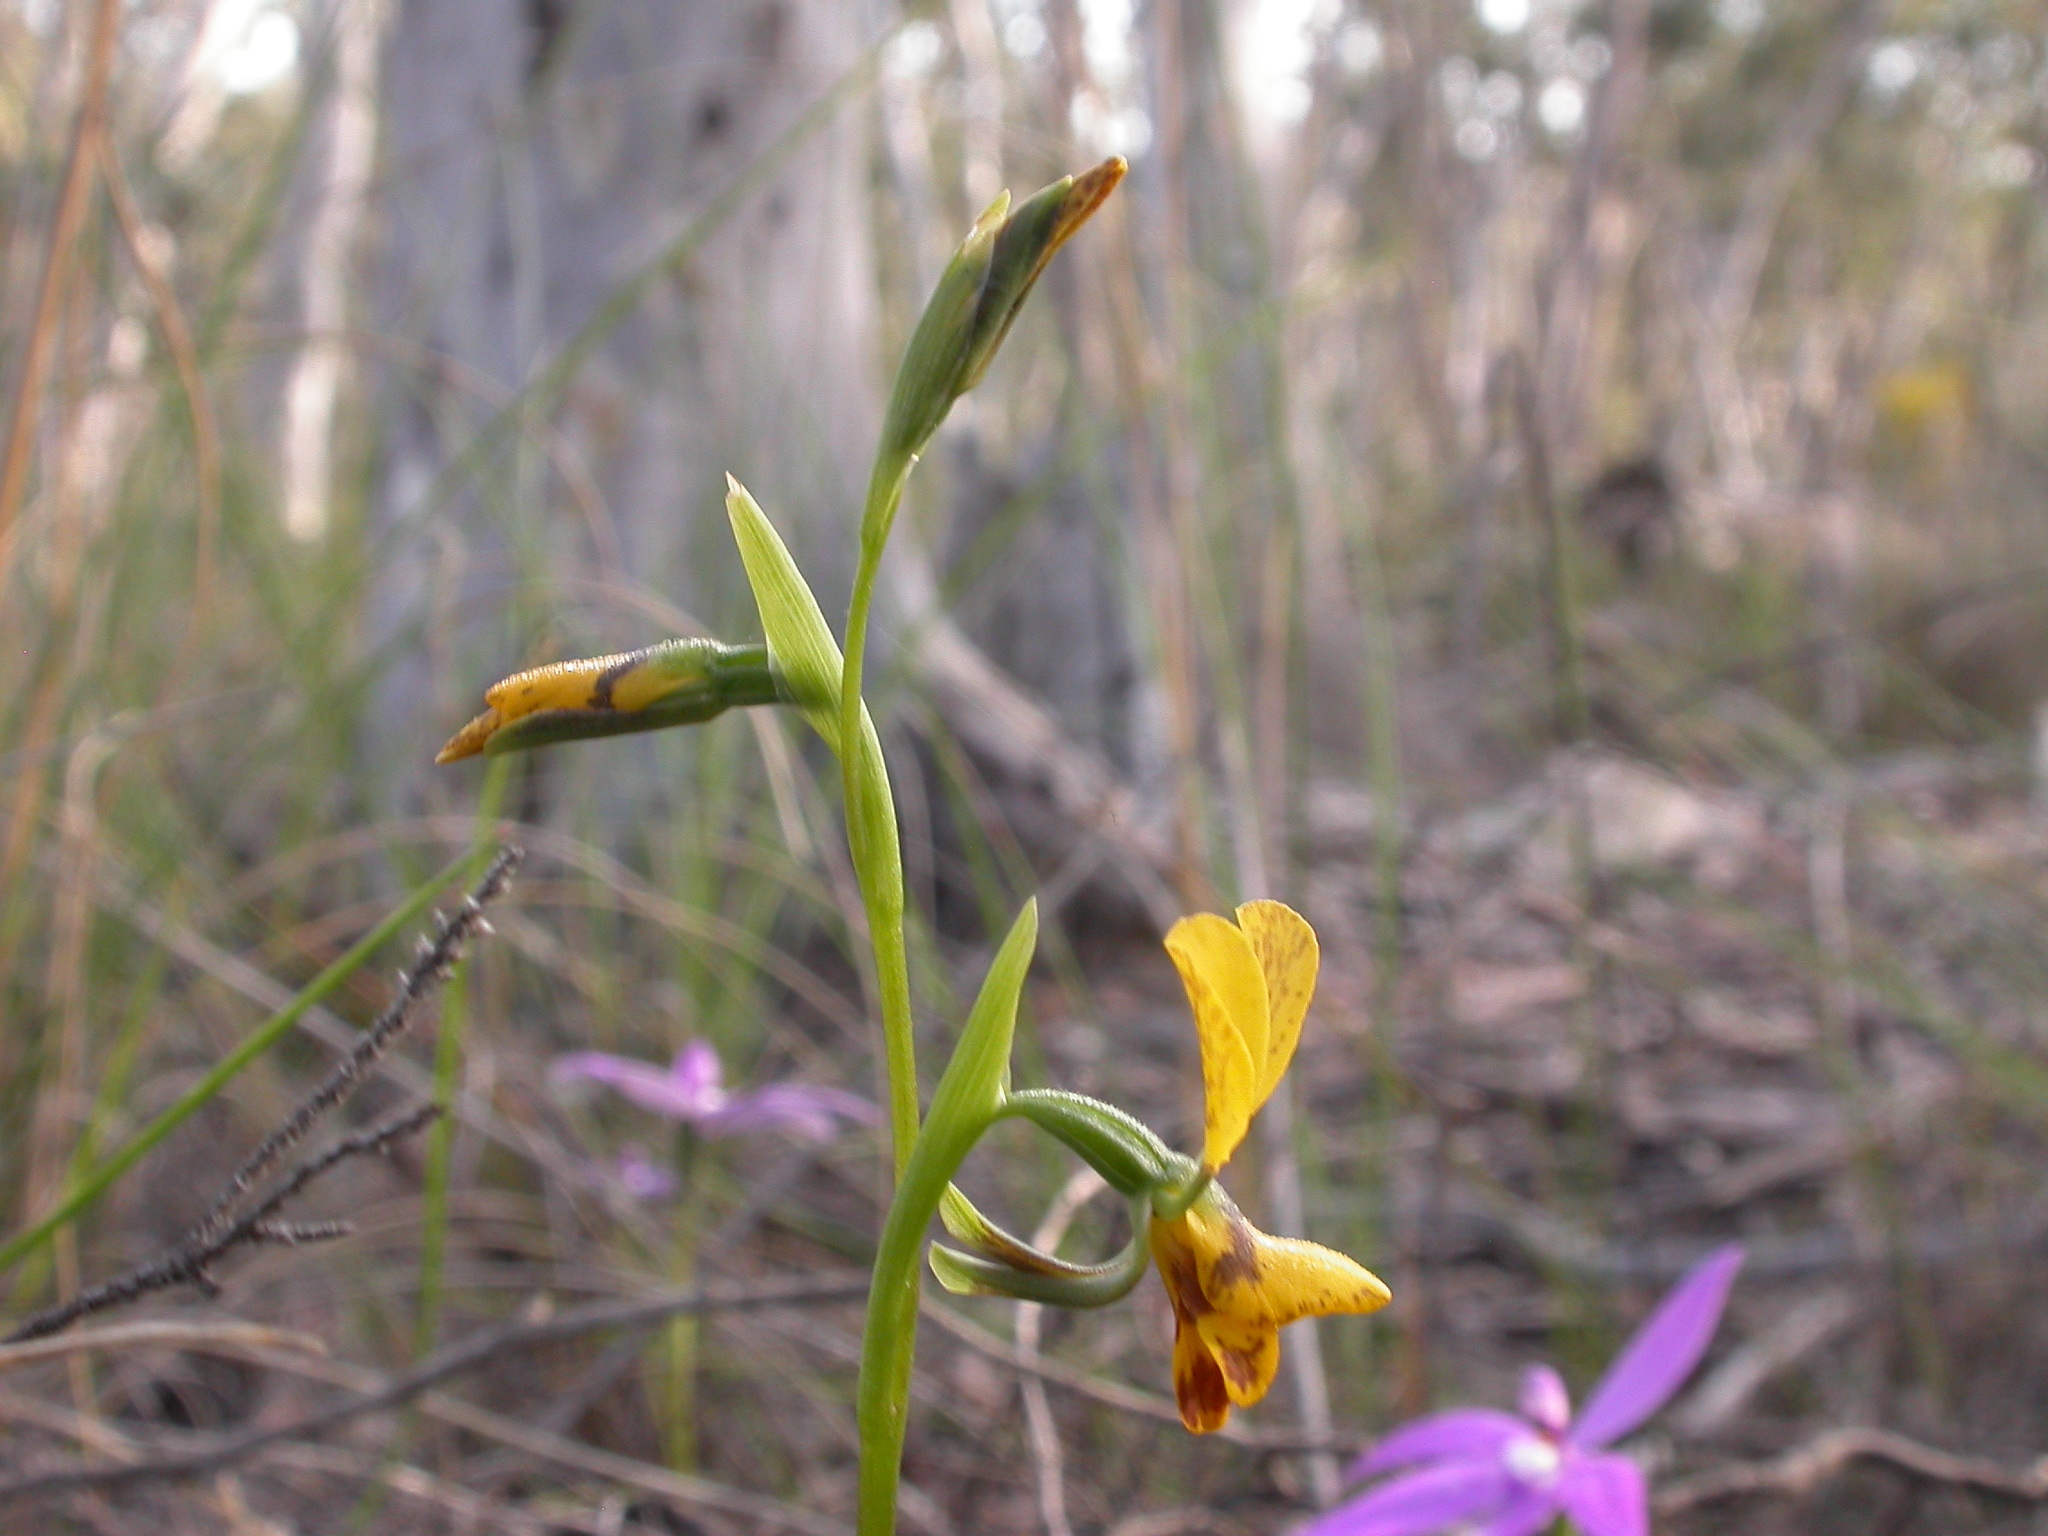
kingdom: Plantae
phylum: Tracheophyta
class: Liliopsida
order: Asparagales
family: Orchidaceae
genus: Diuris
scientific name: Diuris nigromontana
